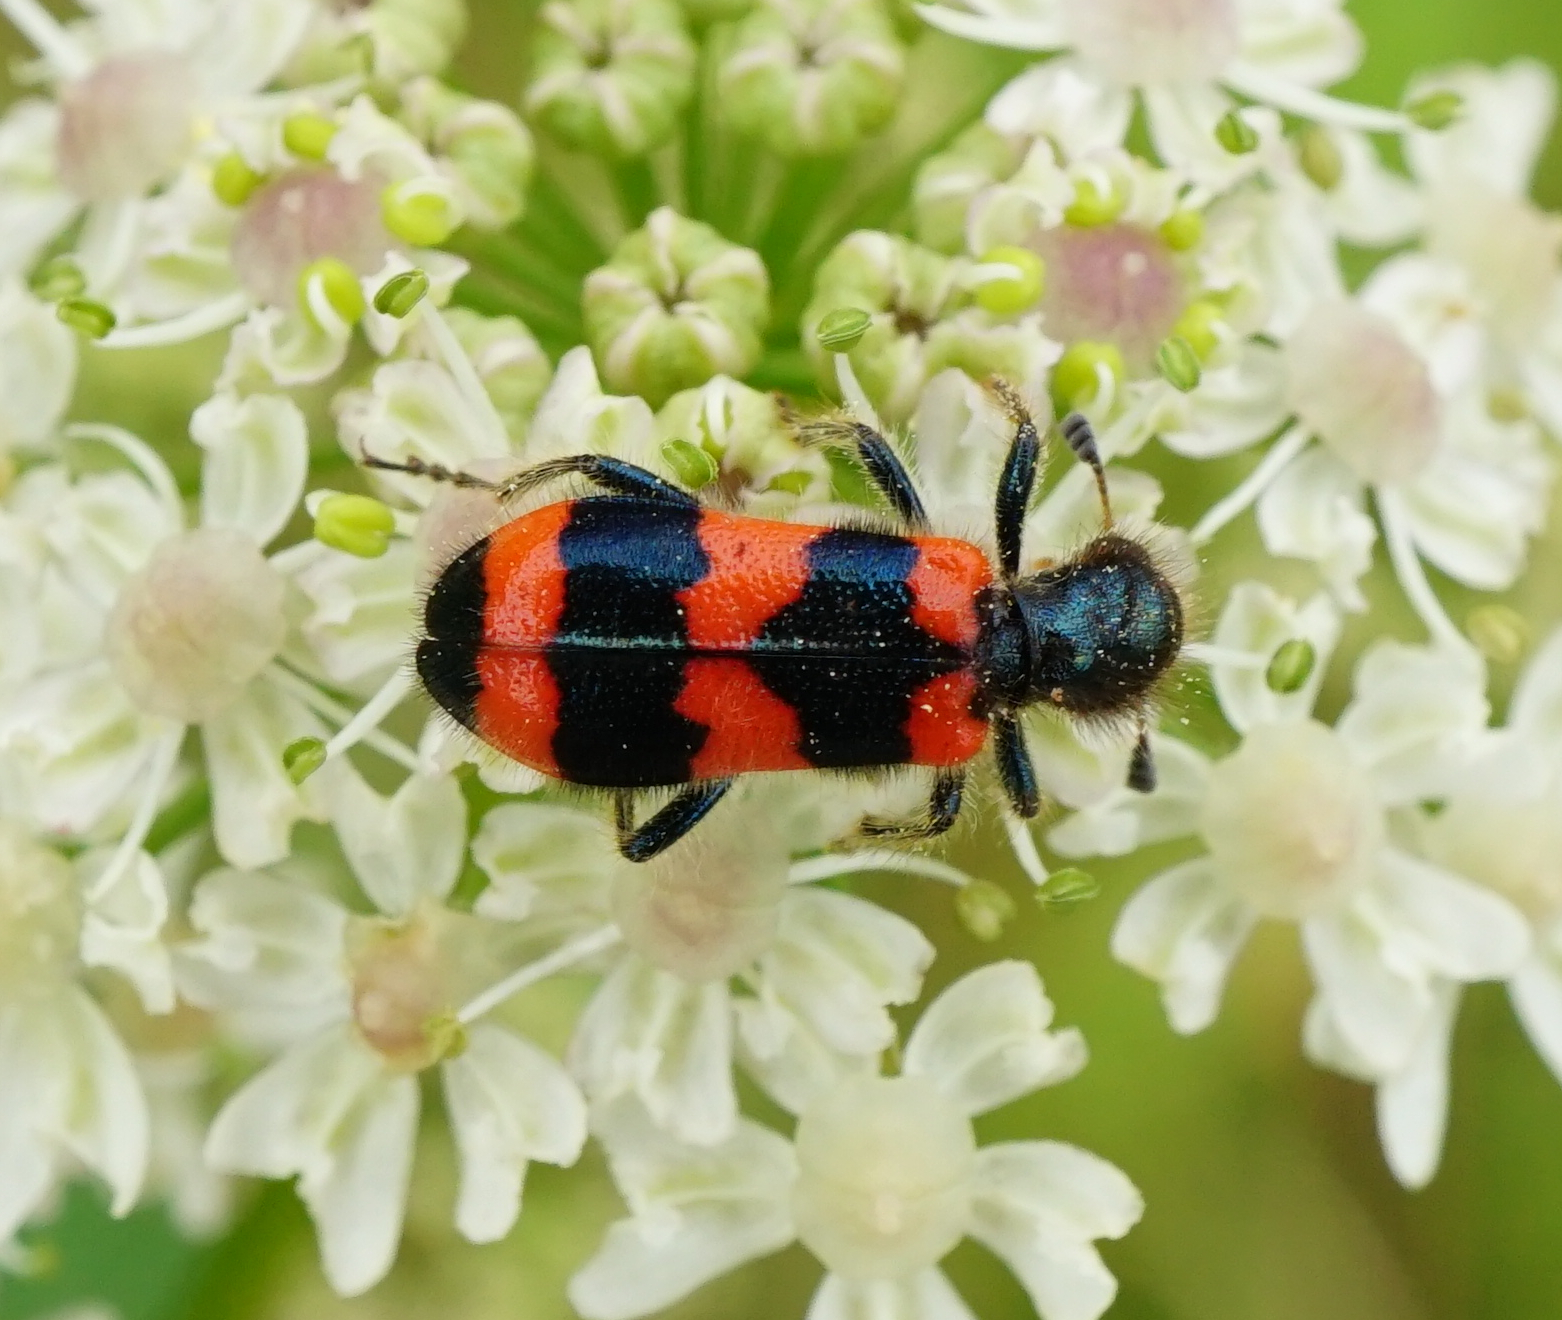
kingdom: Animalia
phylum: Arthropoda
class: Insecta
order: Coleoptera
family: Cleridae
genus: Trichodes
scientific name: Trichodes apiarius
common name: Bee-eating beetle
